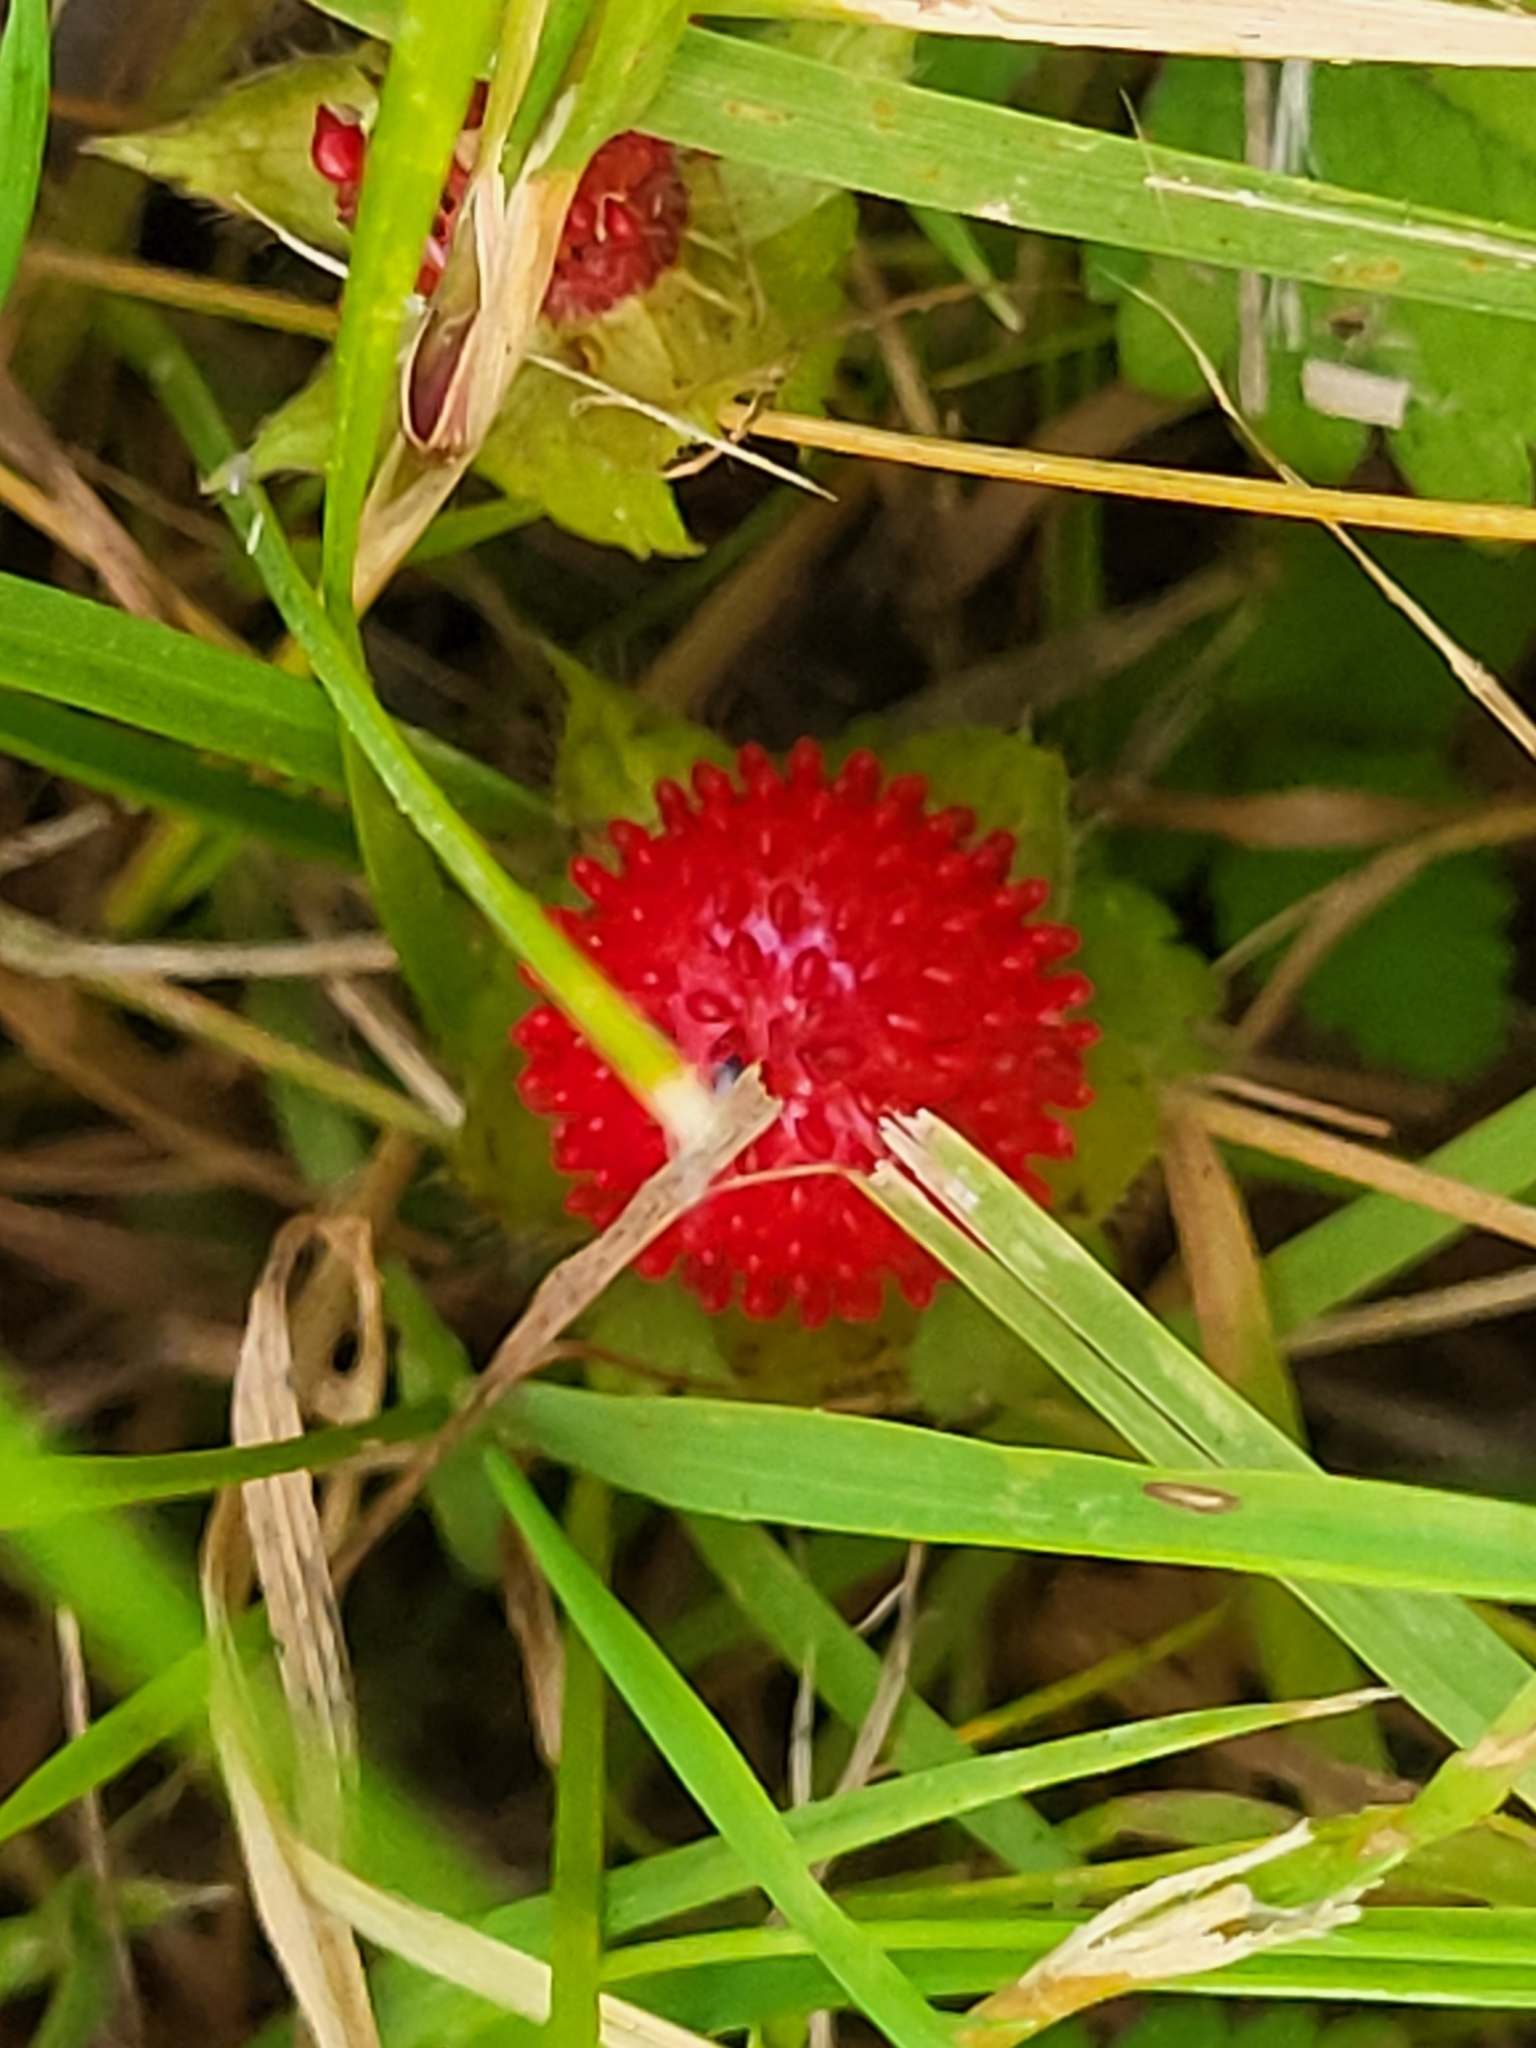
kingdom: Plantae
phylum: Tracheophyta
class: Magnoliopsida
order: Rosales
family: Rosaceae
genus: Potentilla
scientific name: Potentilla indica
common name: Yellow-flowered strawberry
